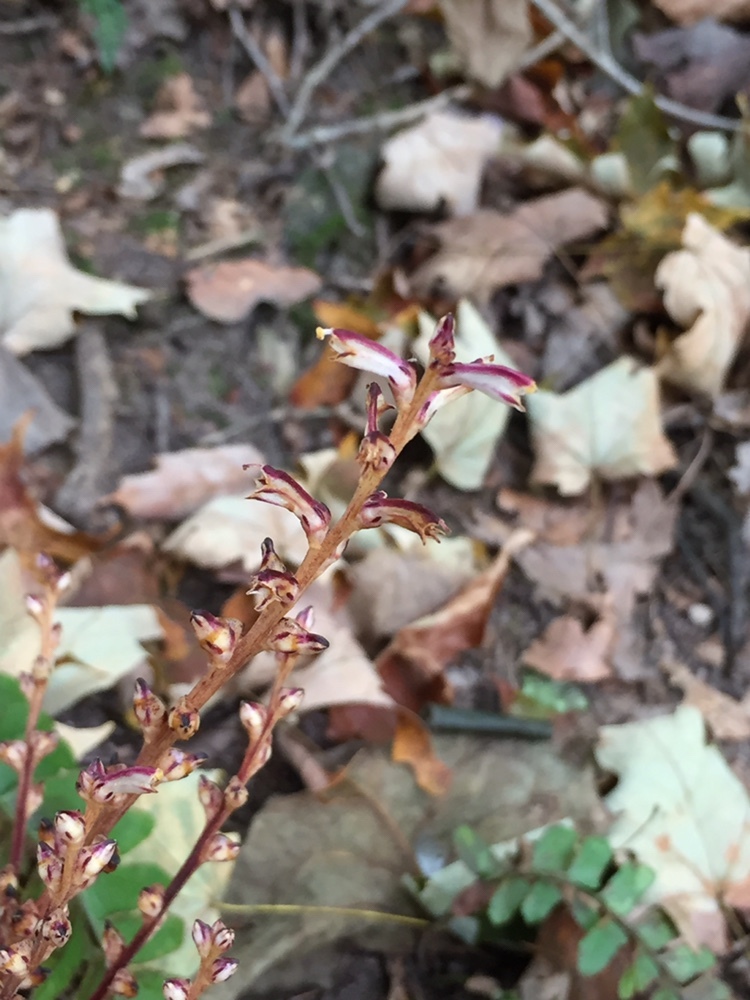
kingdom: Plantae
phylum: Tracheophyta
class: Magnoliopsida
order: Lamiales
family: Orobanchaceae
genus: Epifagus
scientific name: Epifagus virginiana
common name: Beechdrops
